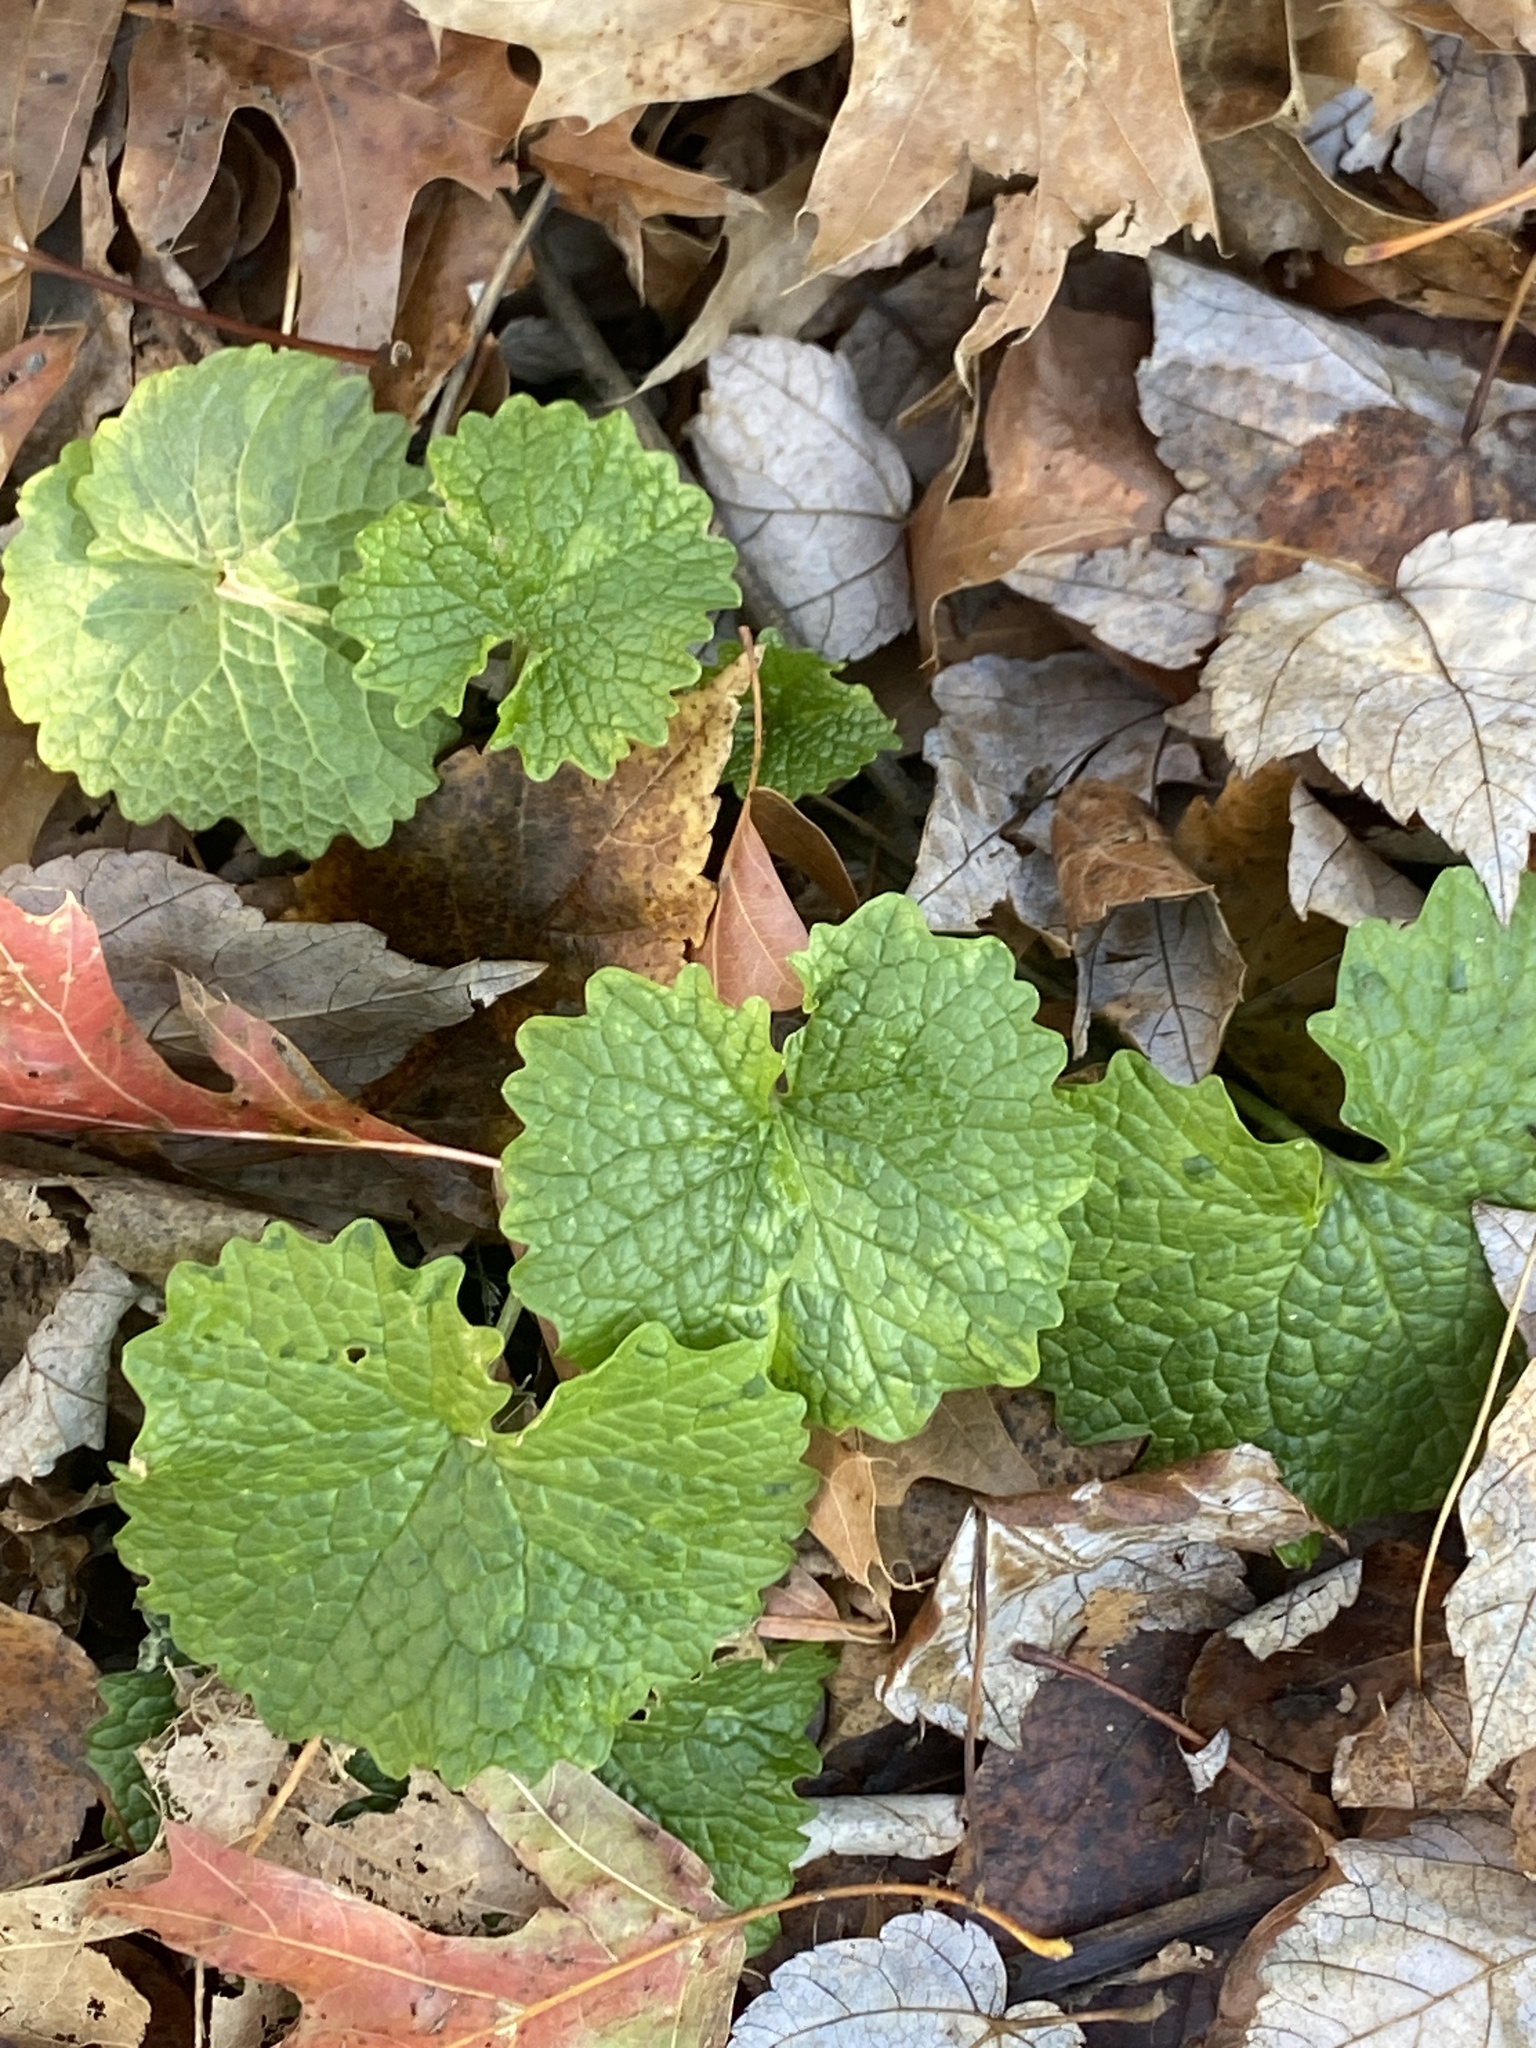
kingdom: Plantae
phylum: Tracheophyta
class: Magnoliopsida
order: Brassicales
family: Brassicaceae
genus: Alliaria
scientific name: Alliaria petiolata
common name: Garlic mustard
